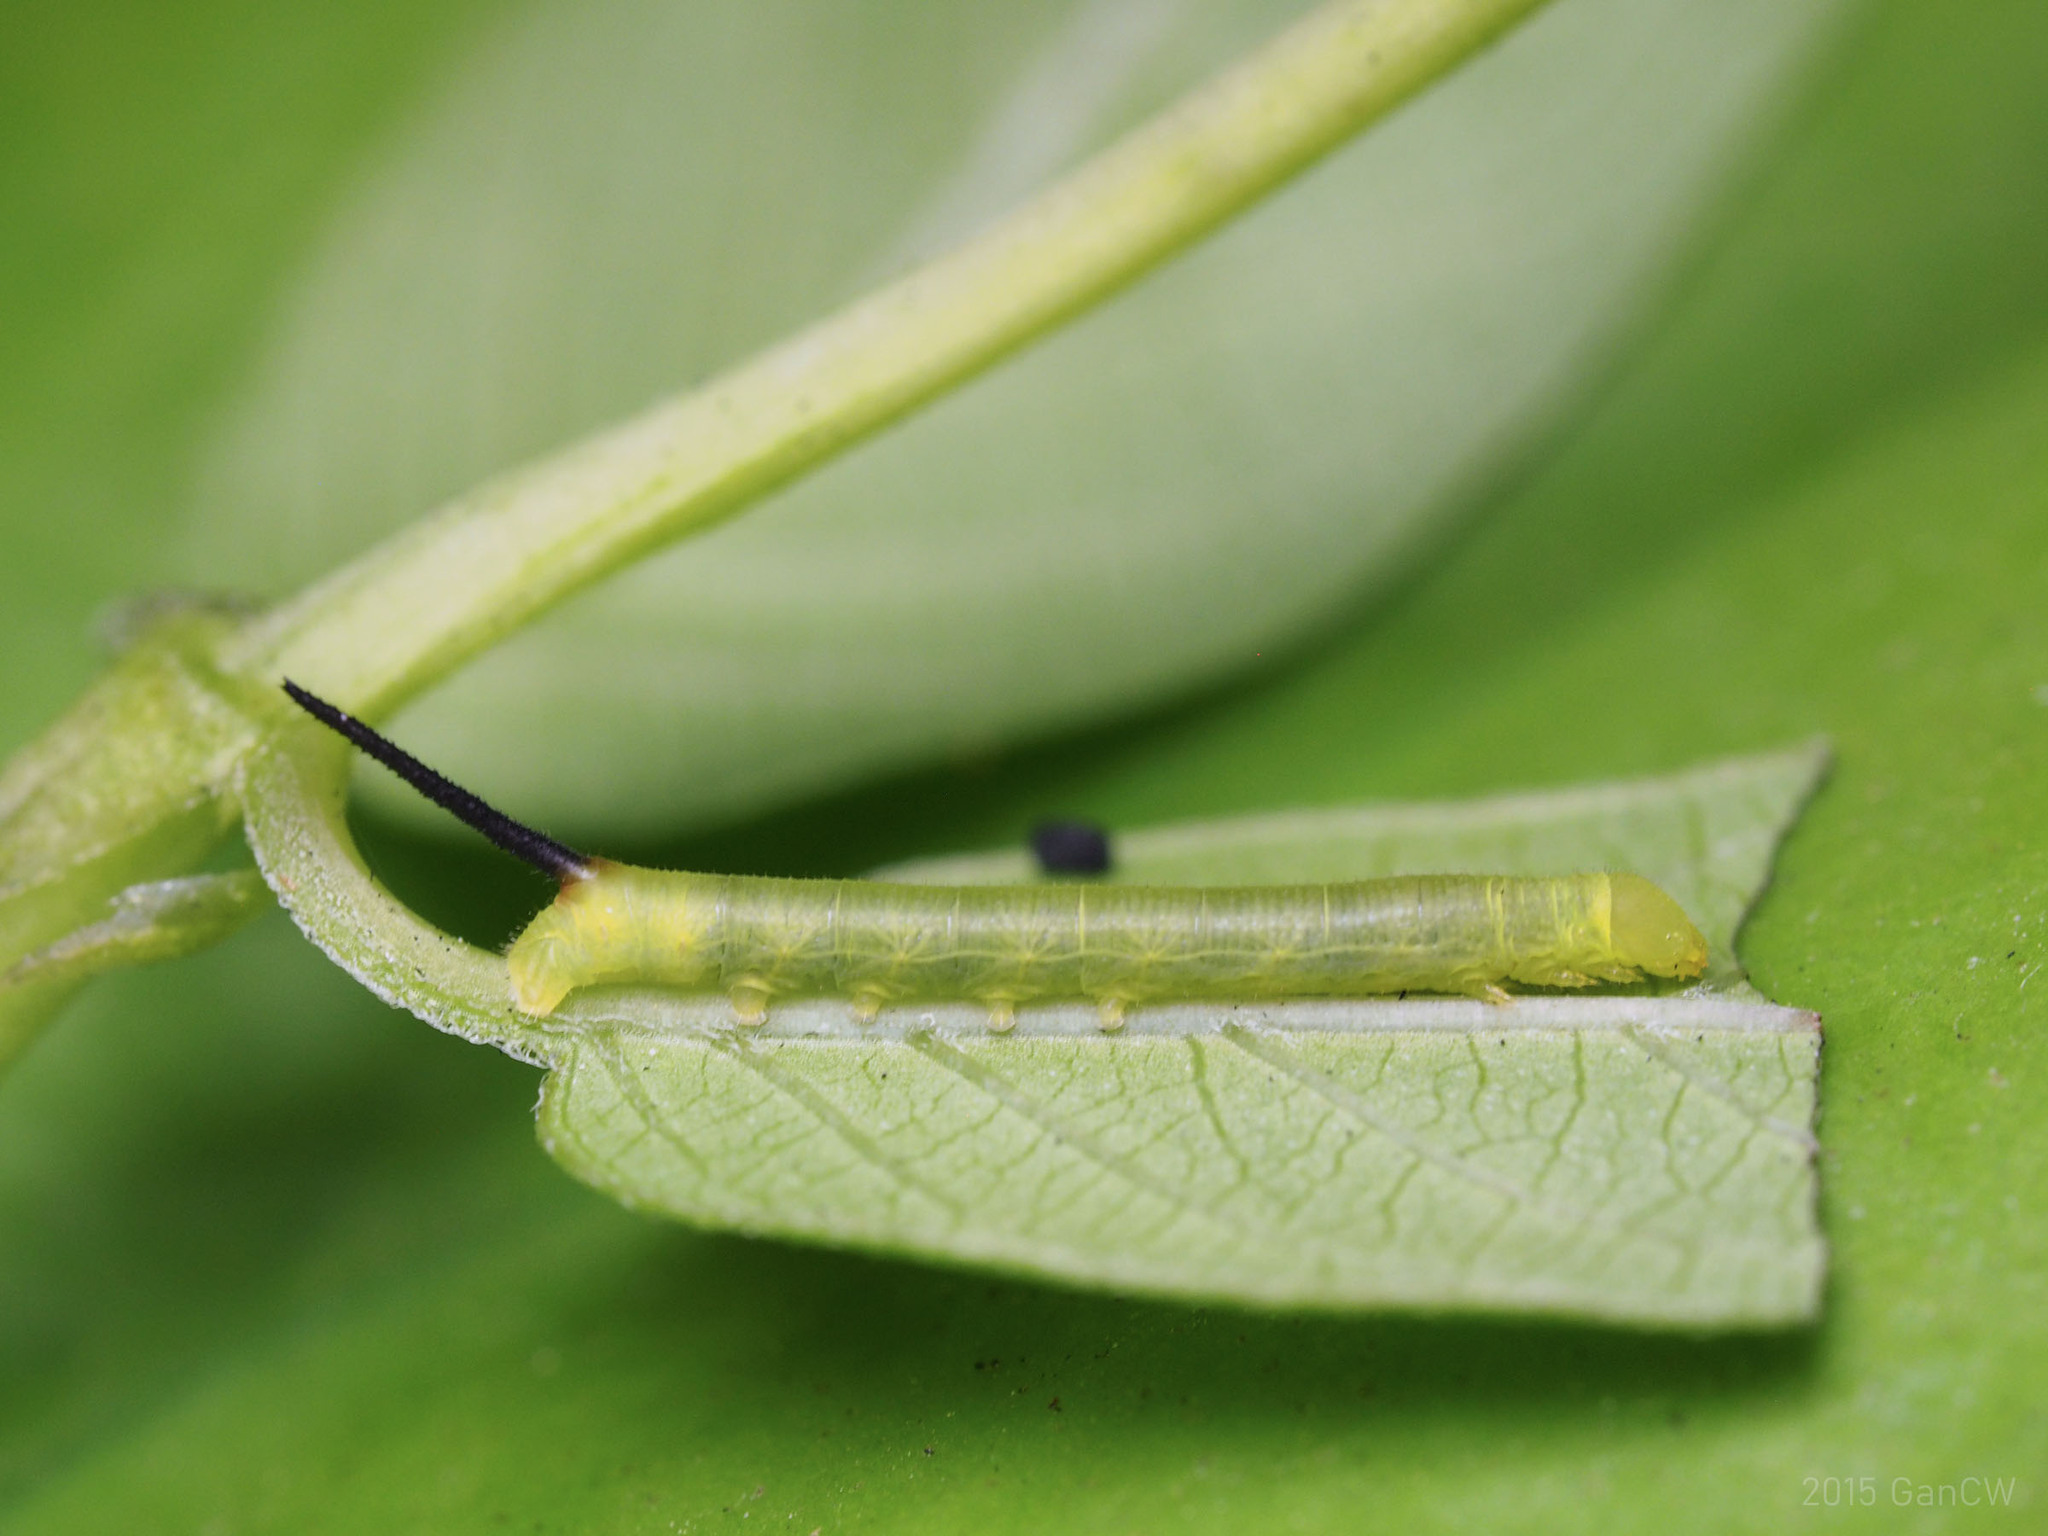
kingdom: Animalia
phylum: Arthropoda
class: Insecta
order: Lepidoptera
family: Sphingidae
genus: Macroglossum
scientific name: Macroglossum sitiene
